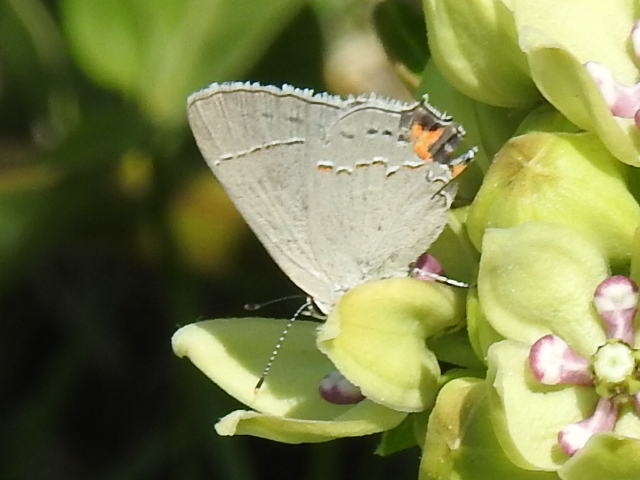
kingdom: Animalia
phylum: Arthropoda
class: Insecta
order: Lepidoptera
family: Lycaenidae
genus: Strymon
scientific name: Strymon melinus
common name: Gray hairstreak
